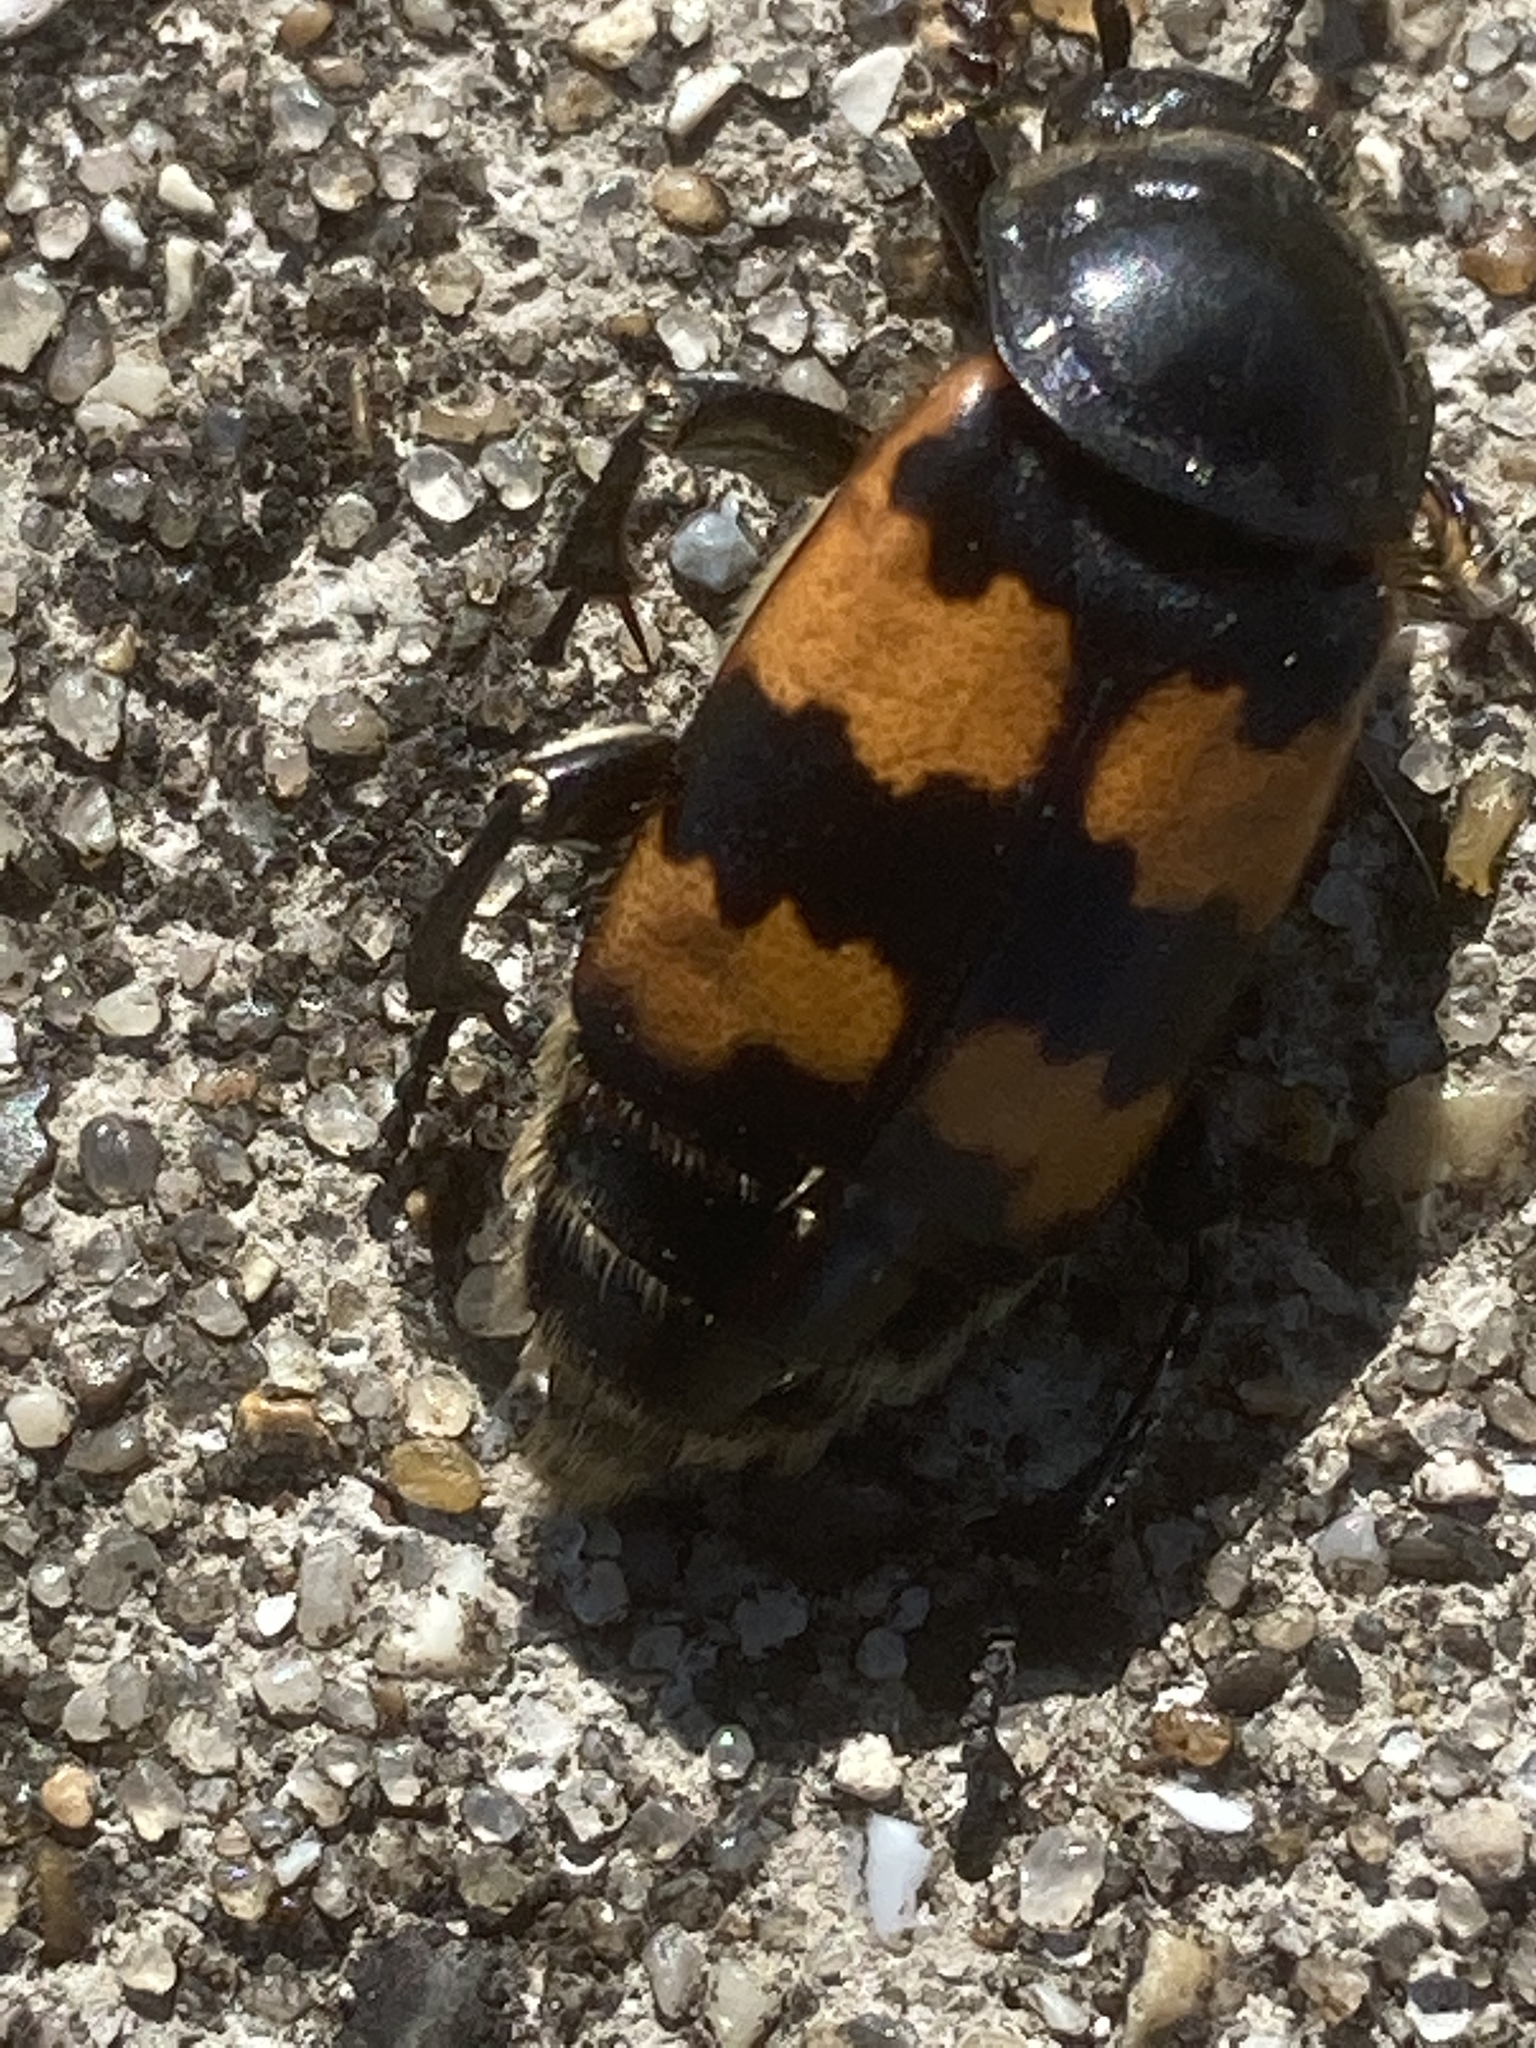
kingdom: Animalia
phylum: Arthropoda
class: Insecta
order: Coleoptera
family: Staphylinidae
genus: Nicrophorus
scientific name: Nicrophorus vespillo
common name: Common burying beetle
